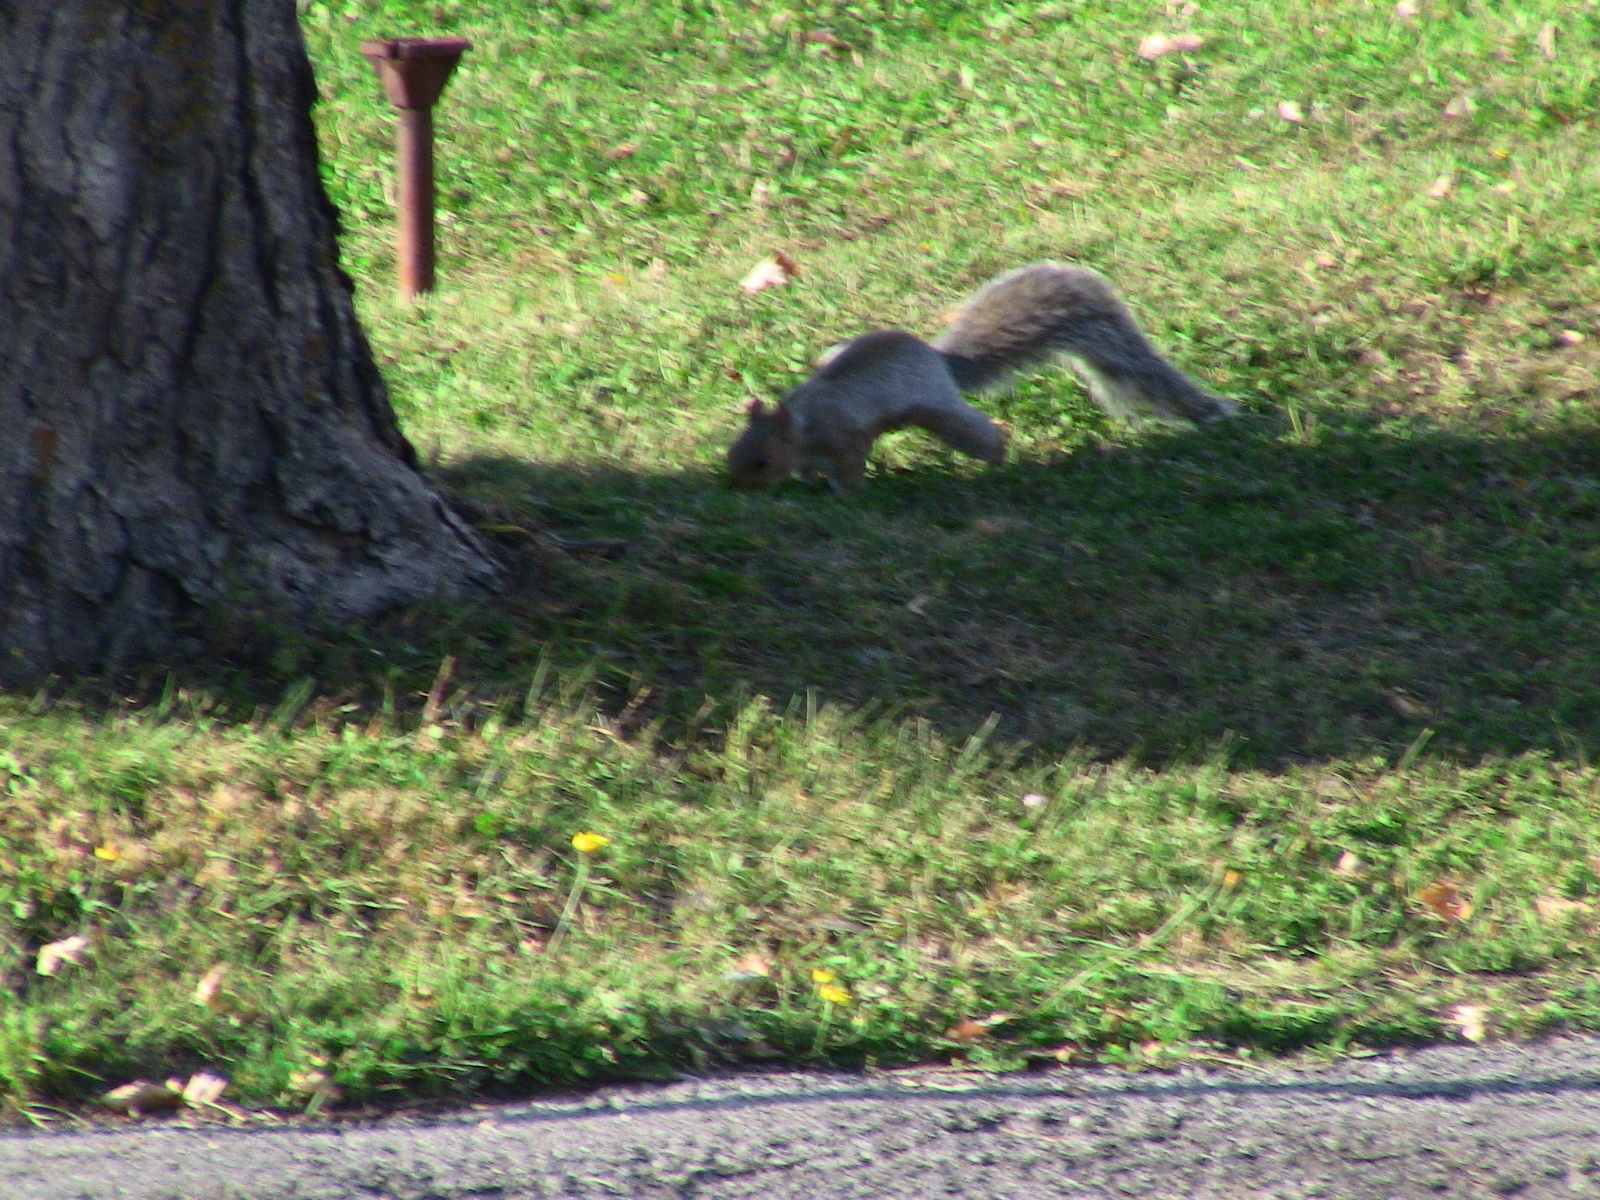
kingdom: Animalia
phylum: Chordata
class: Mammalia
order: Rodentia
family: Sciuridae
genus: Sciurus
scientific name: Sciurus carolinensis
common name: Eastern gray squirrel
